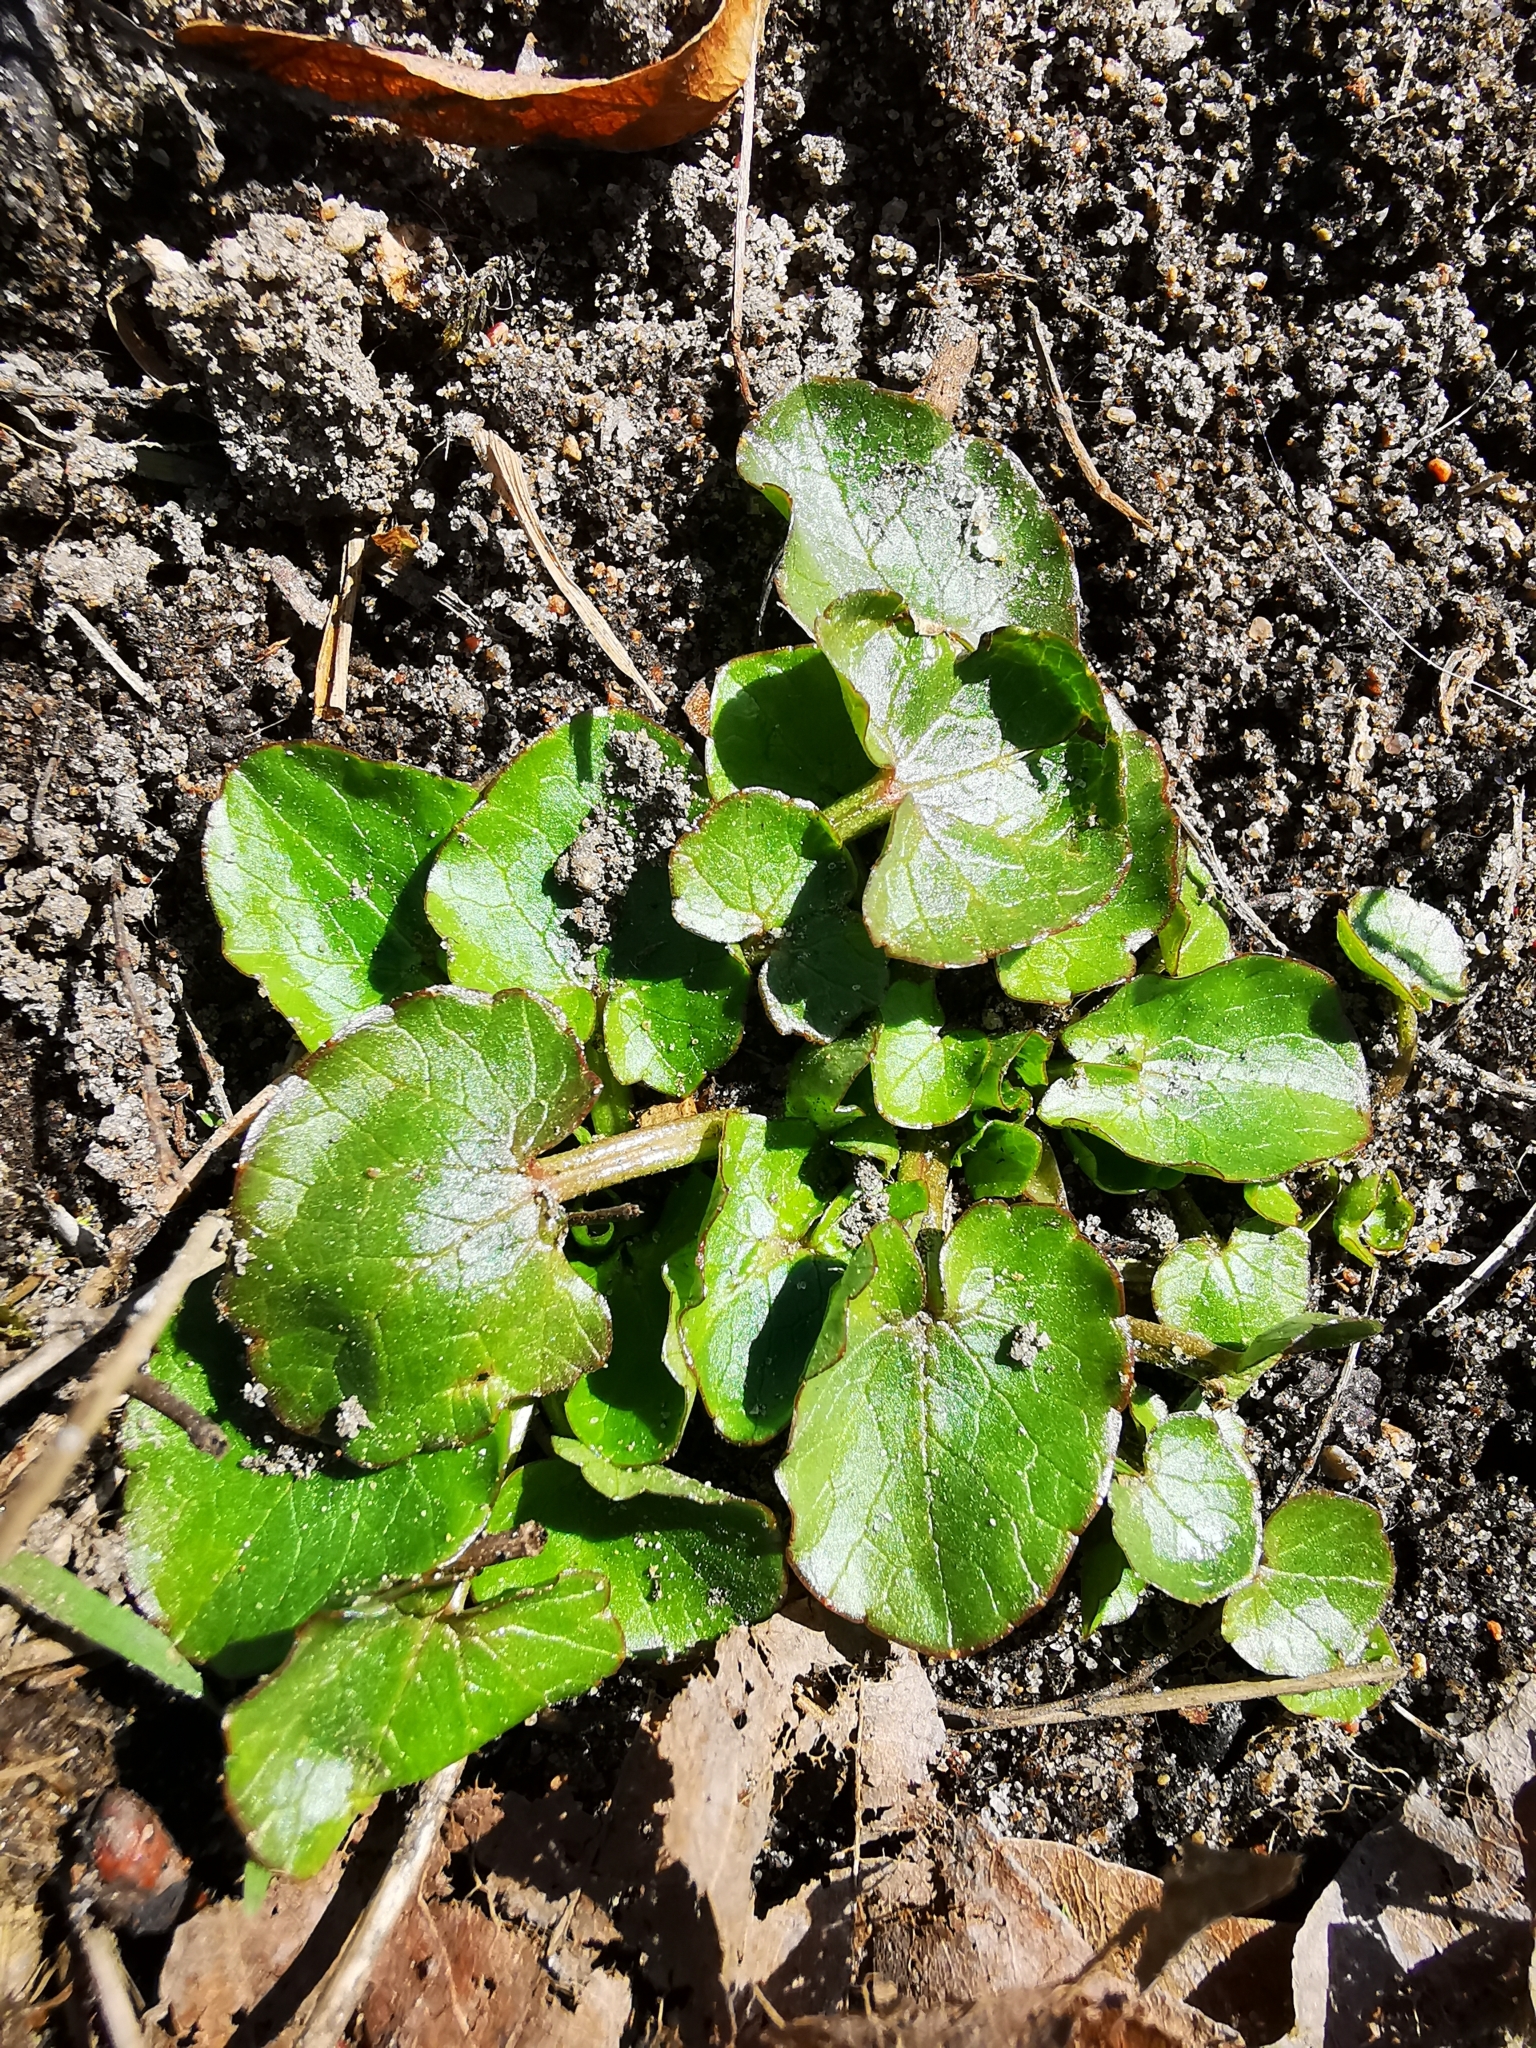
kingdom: Plantae
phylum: Tracheophyta
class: Magnoliopsida
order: Ranunculales
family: Ranunculaceae
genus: Ficaria
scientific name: Ficaria verna
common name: Lesser celandine
